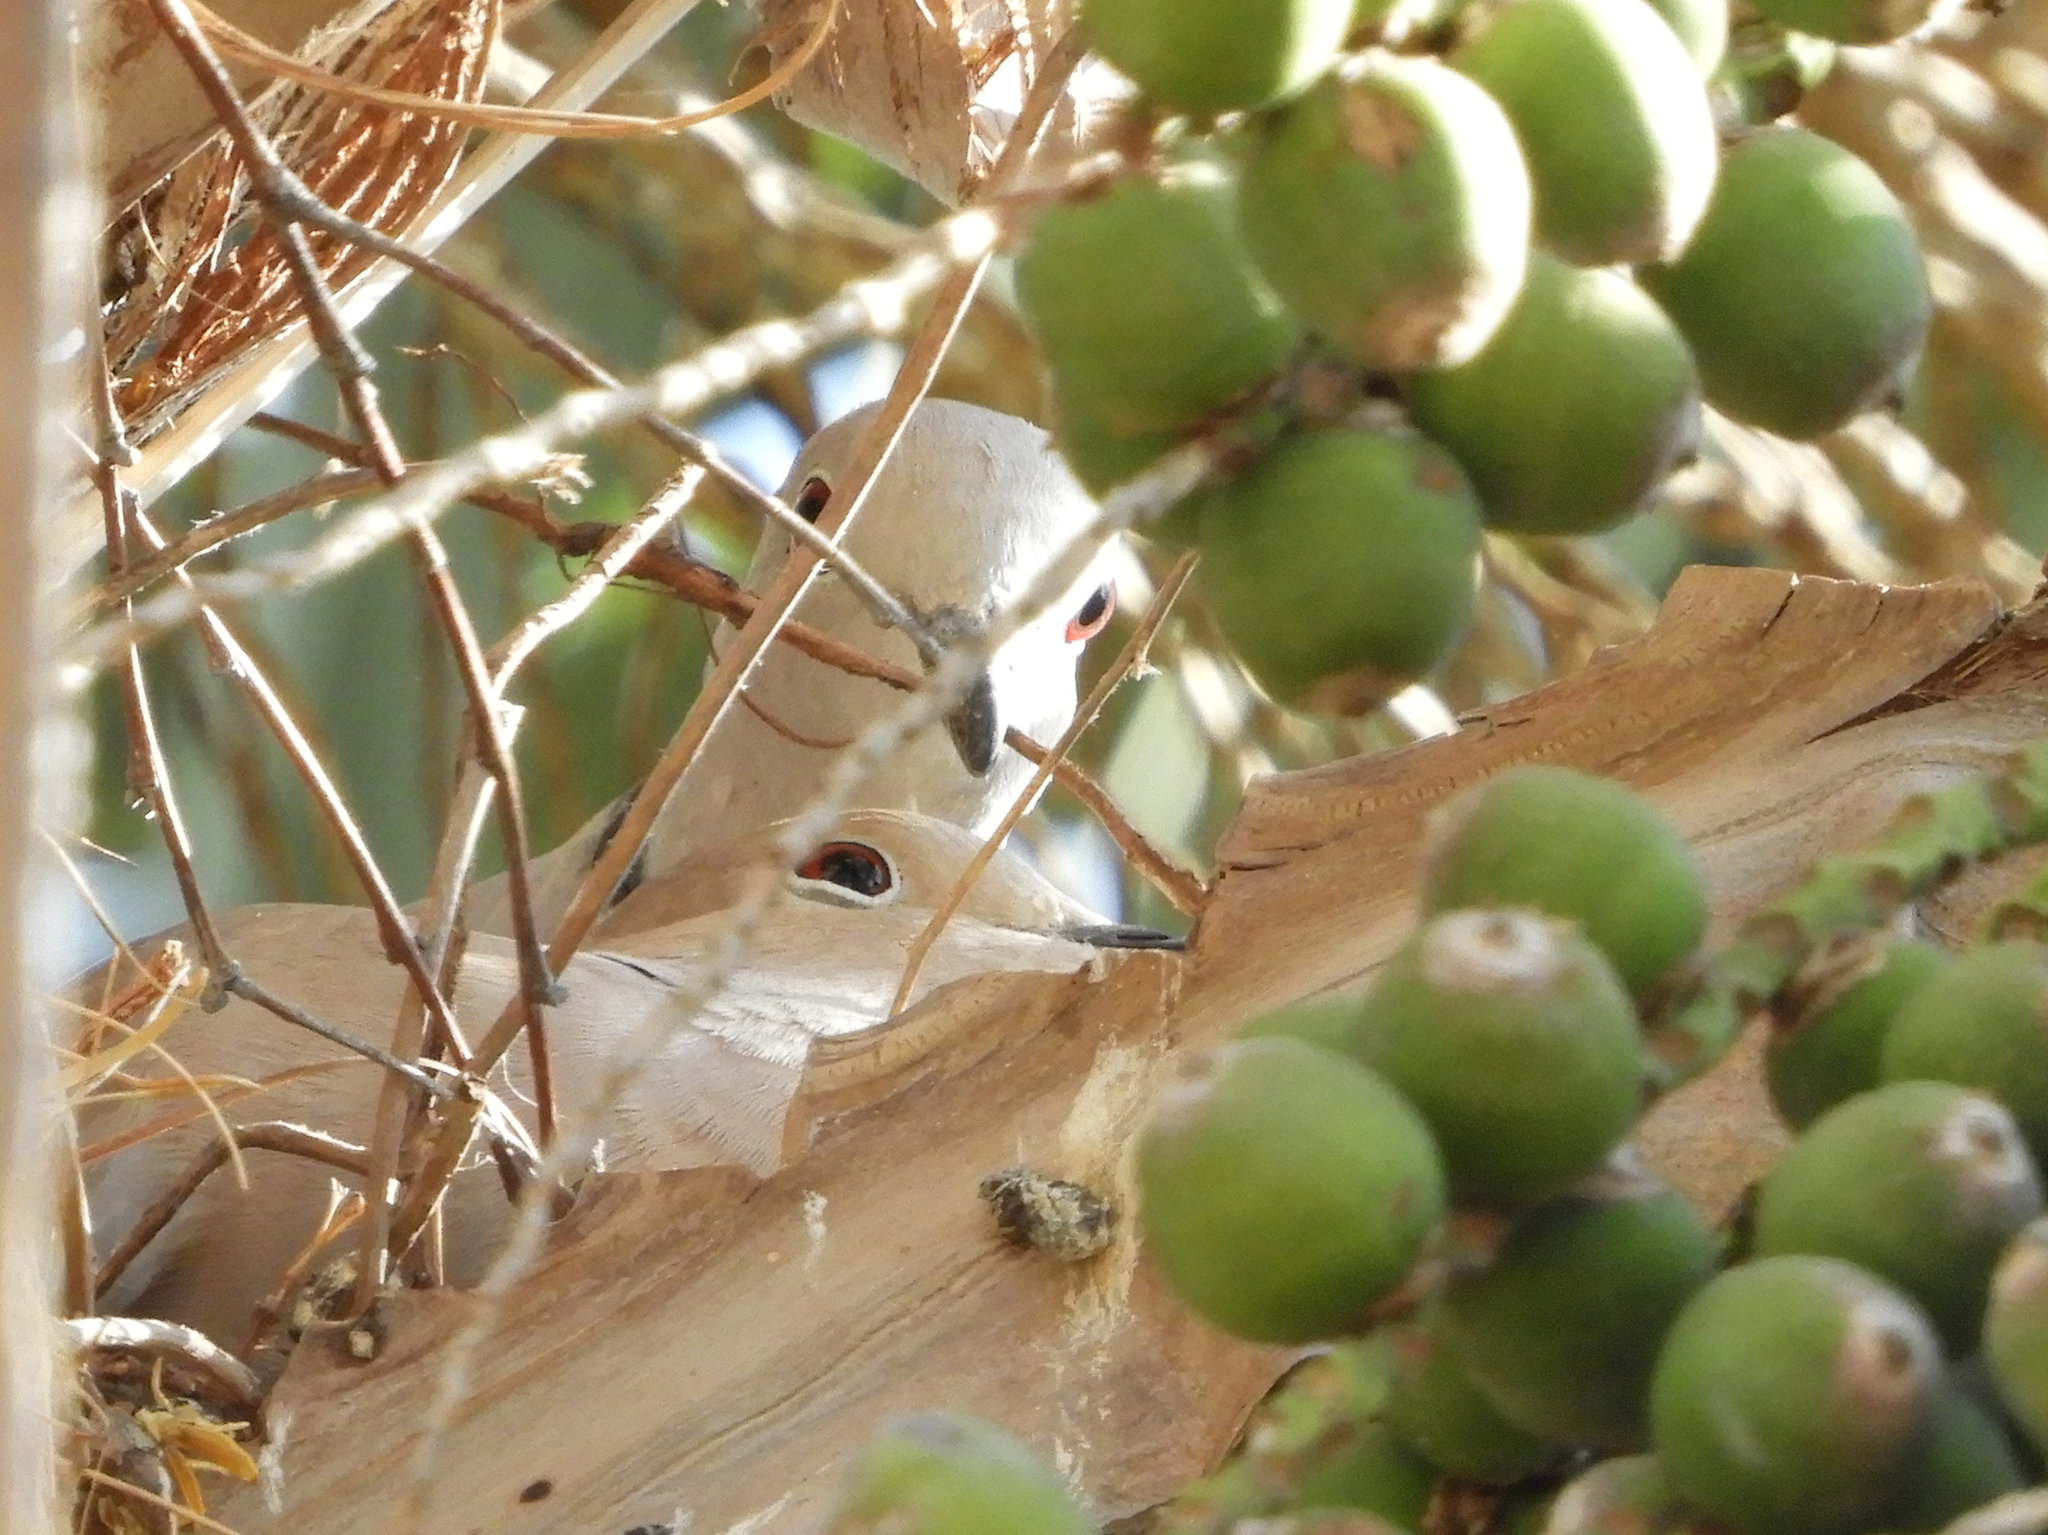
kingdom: Animalia
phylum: Chordata
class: Aves
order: Columbiformes
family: Columbidae
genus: Streptopelia
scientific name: Streptopelia decaocto
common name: Eurasian collared dove
